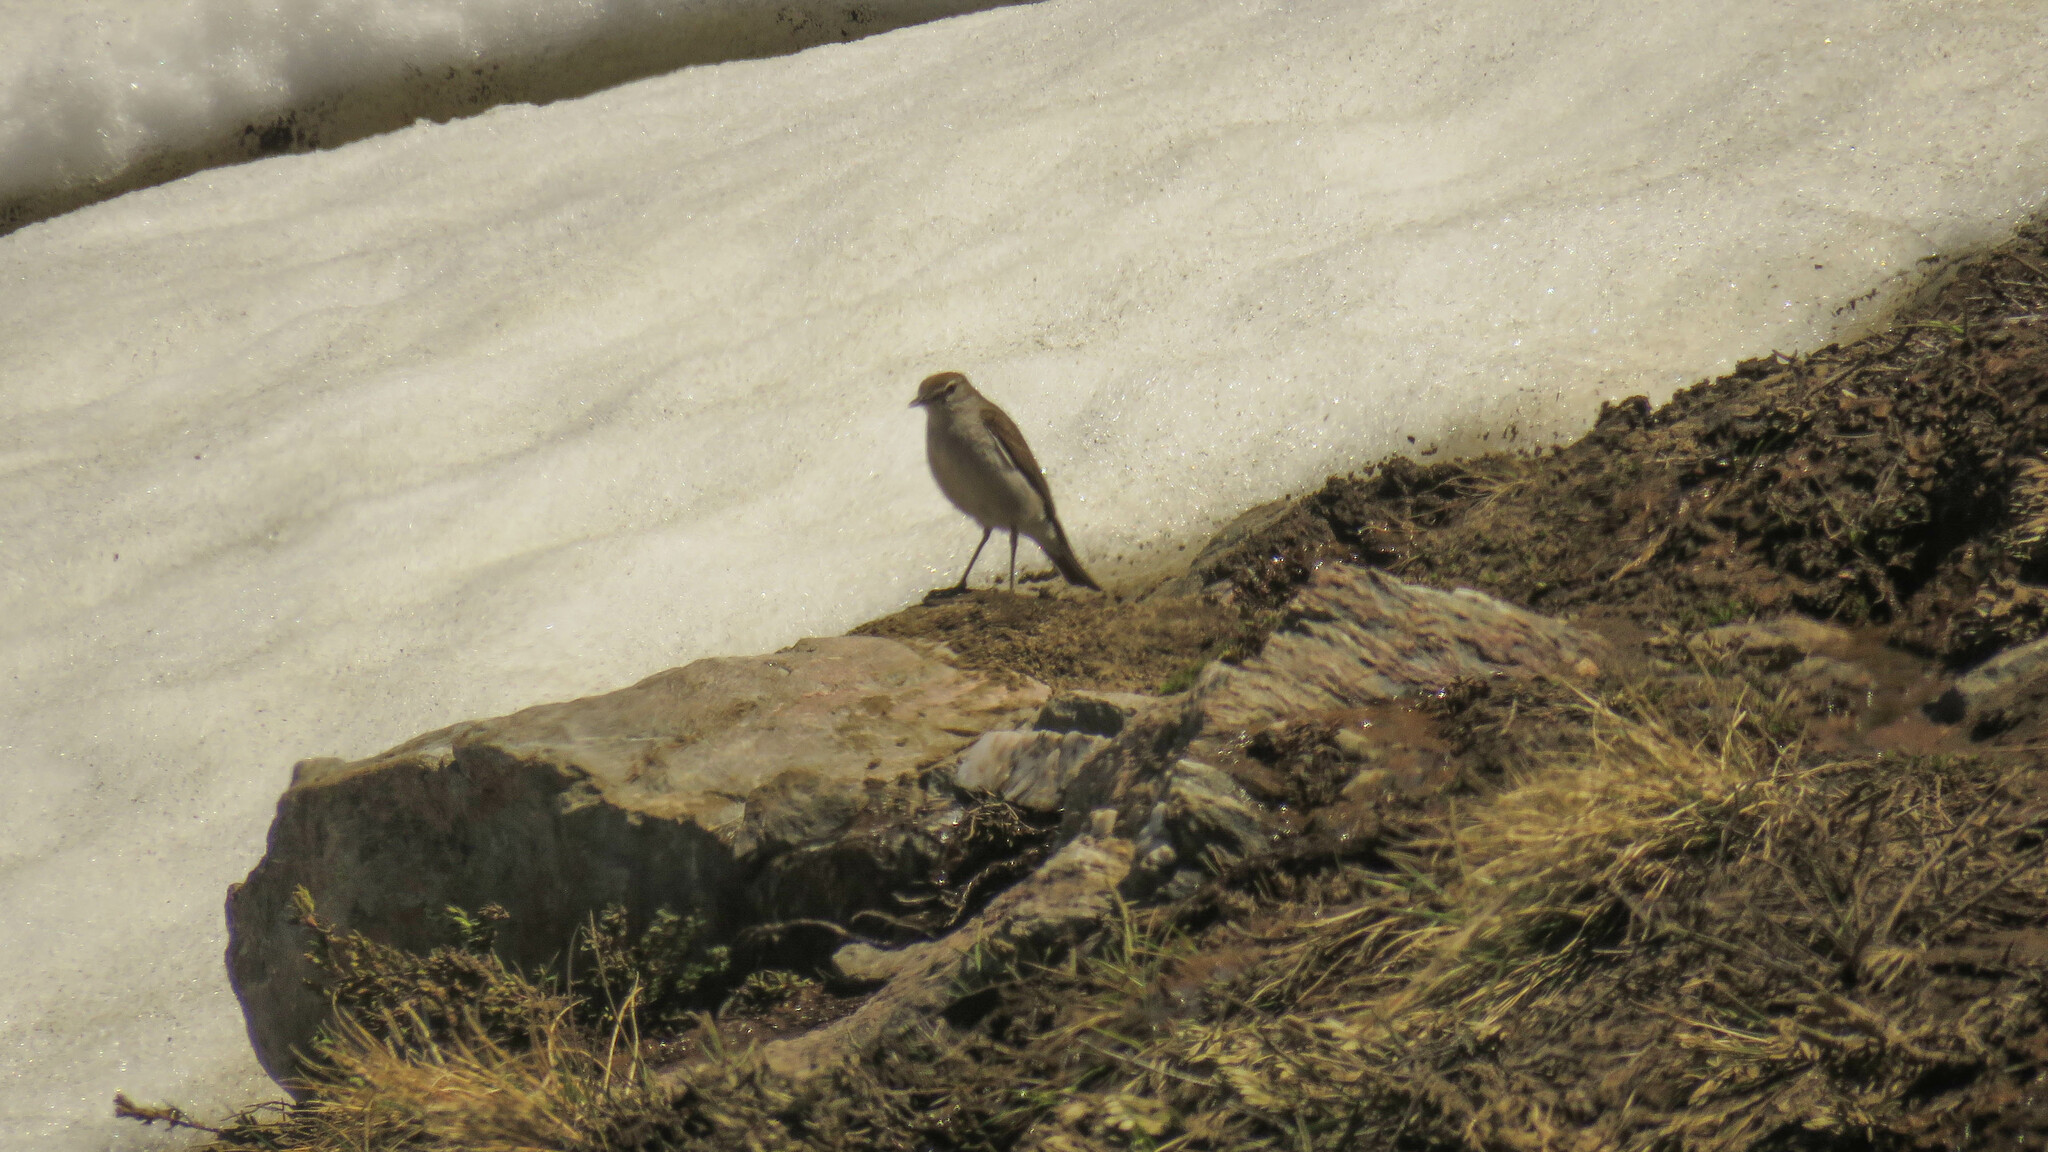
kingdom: Animalia
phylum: Chordata
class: Aves
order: Passeriformes
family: Tyrannidae
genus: Muscisaxicola
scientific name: Muscisaxicola albilora
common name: White-browed ground tyrant
